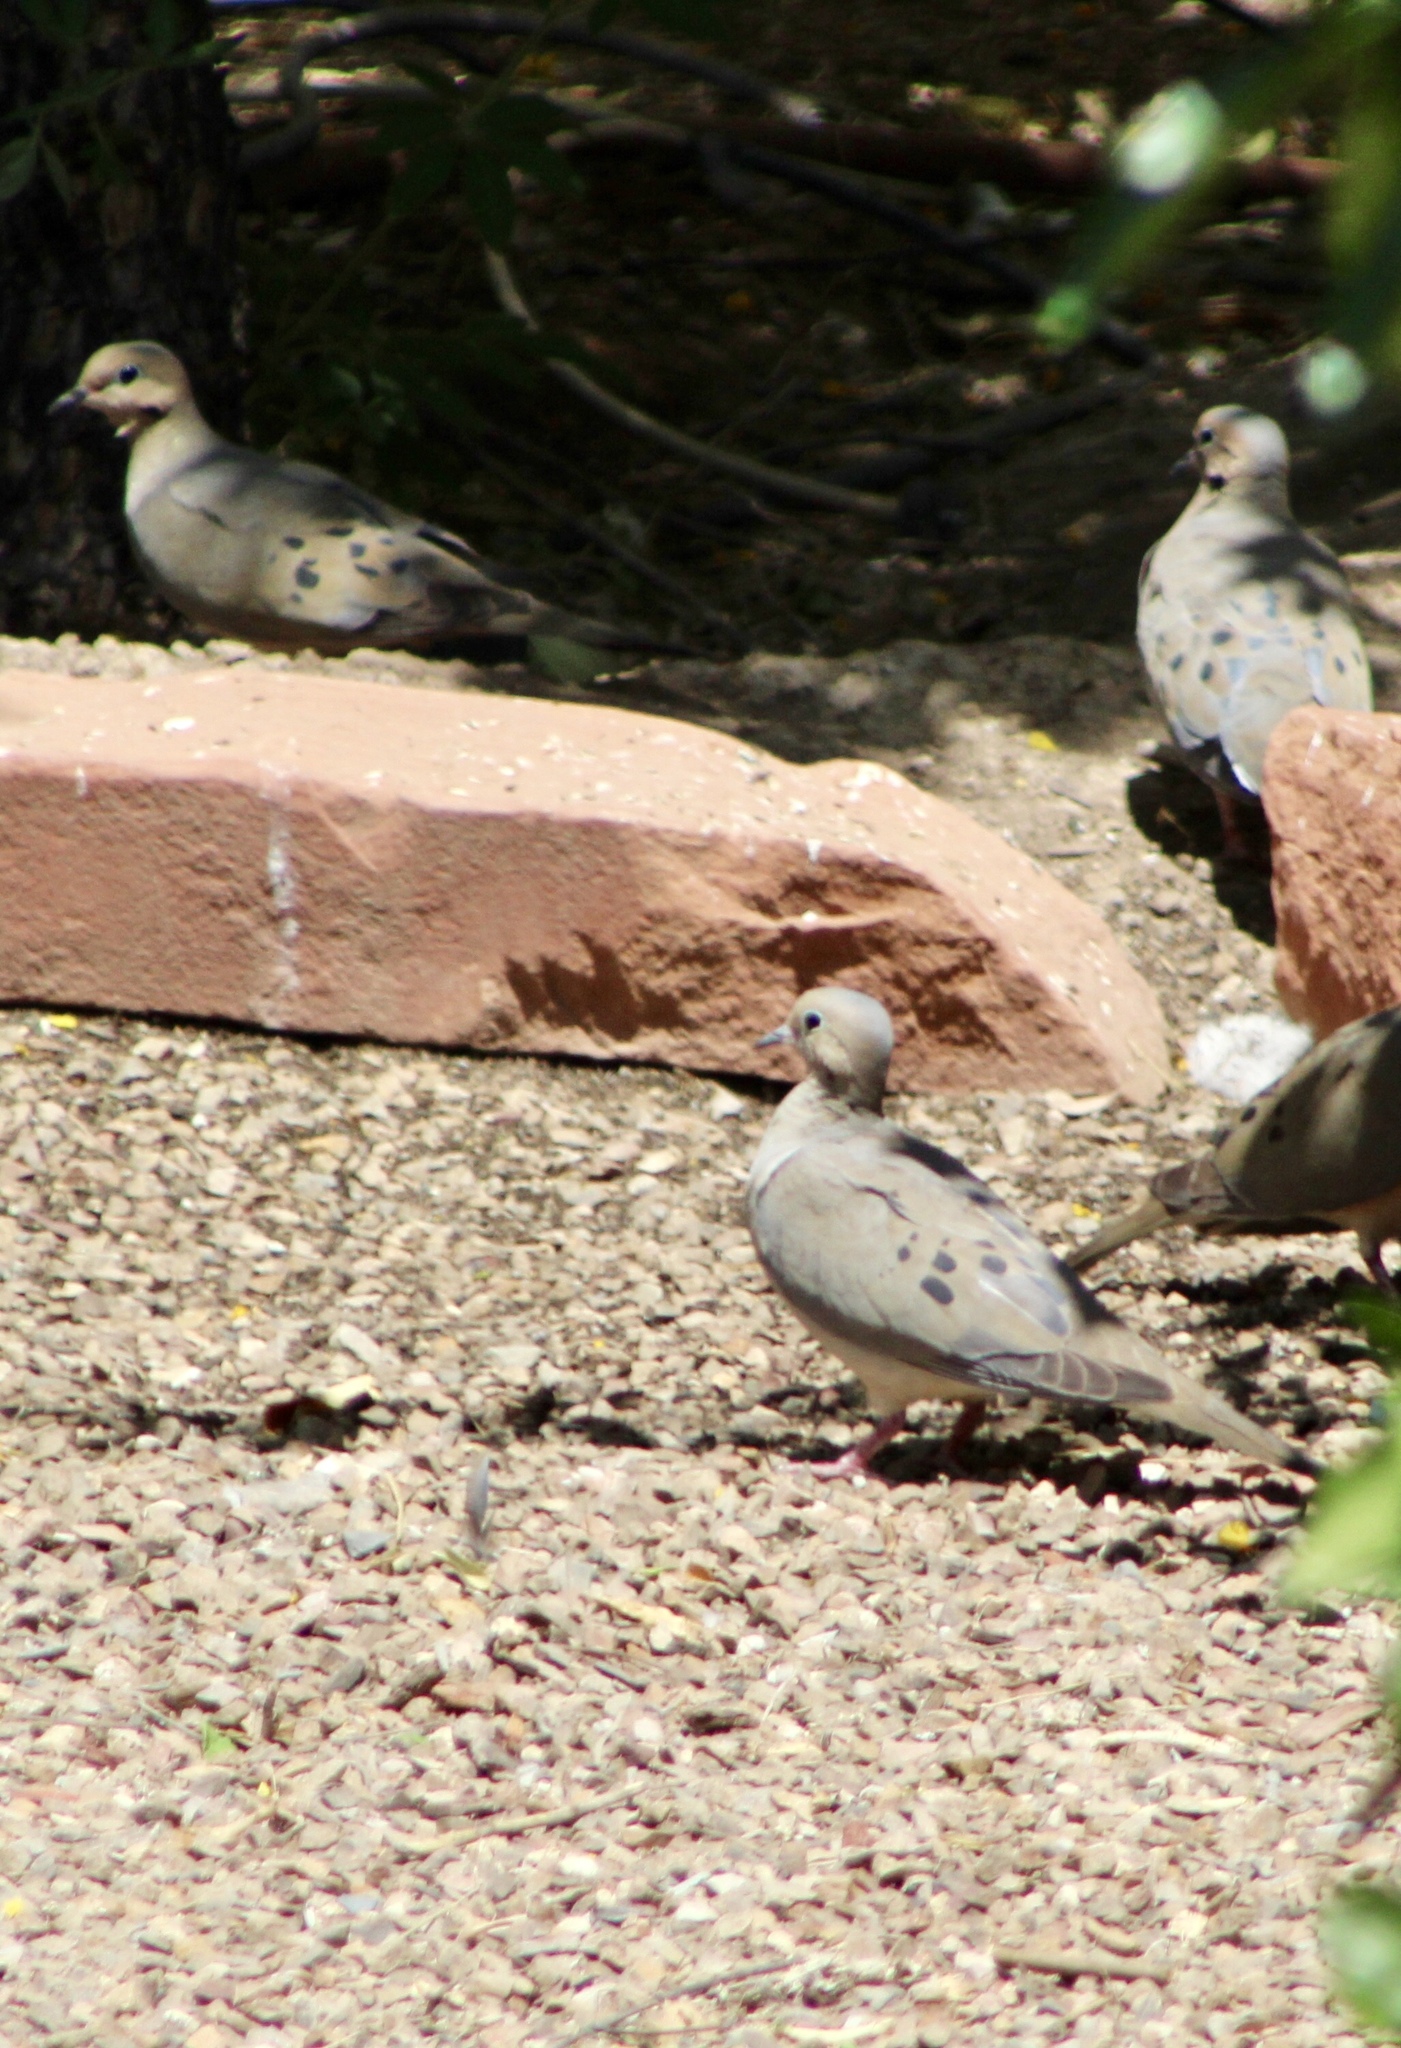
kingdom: Animalia
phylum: Chordata
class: Aves
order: Columbiformes
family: Columbidae
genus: Zenaida
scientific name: Zenaida macroura
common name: Mourning dove
